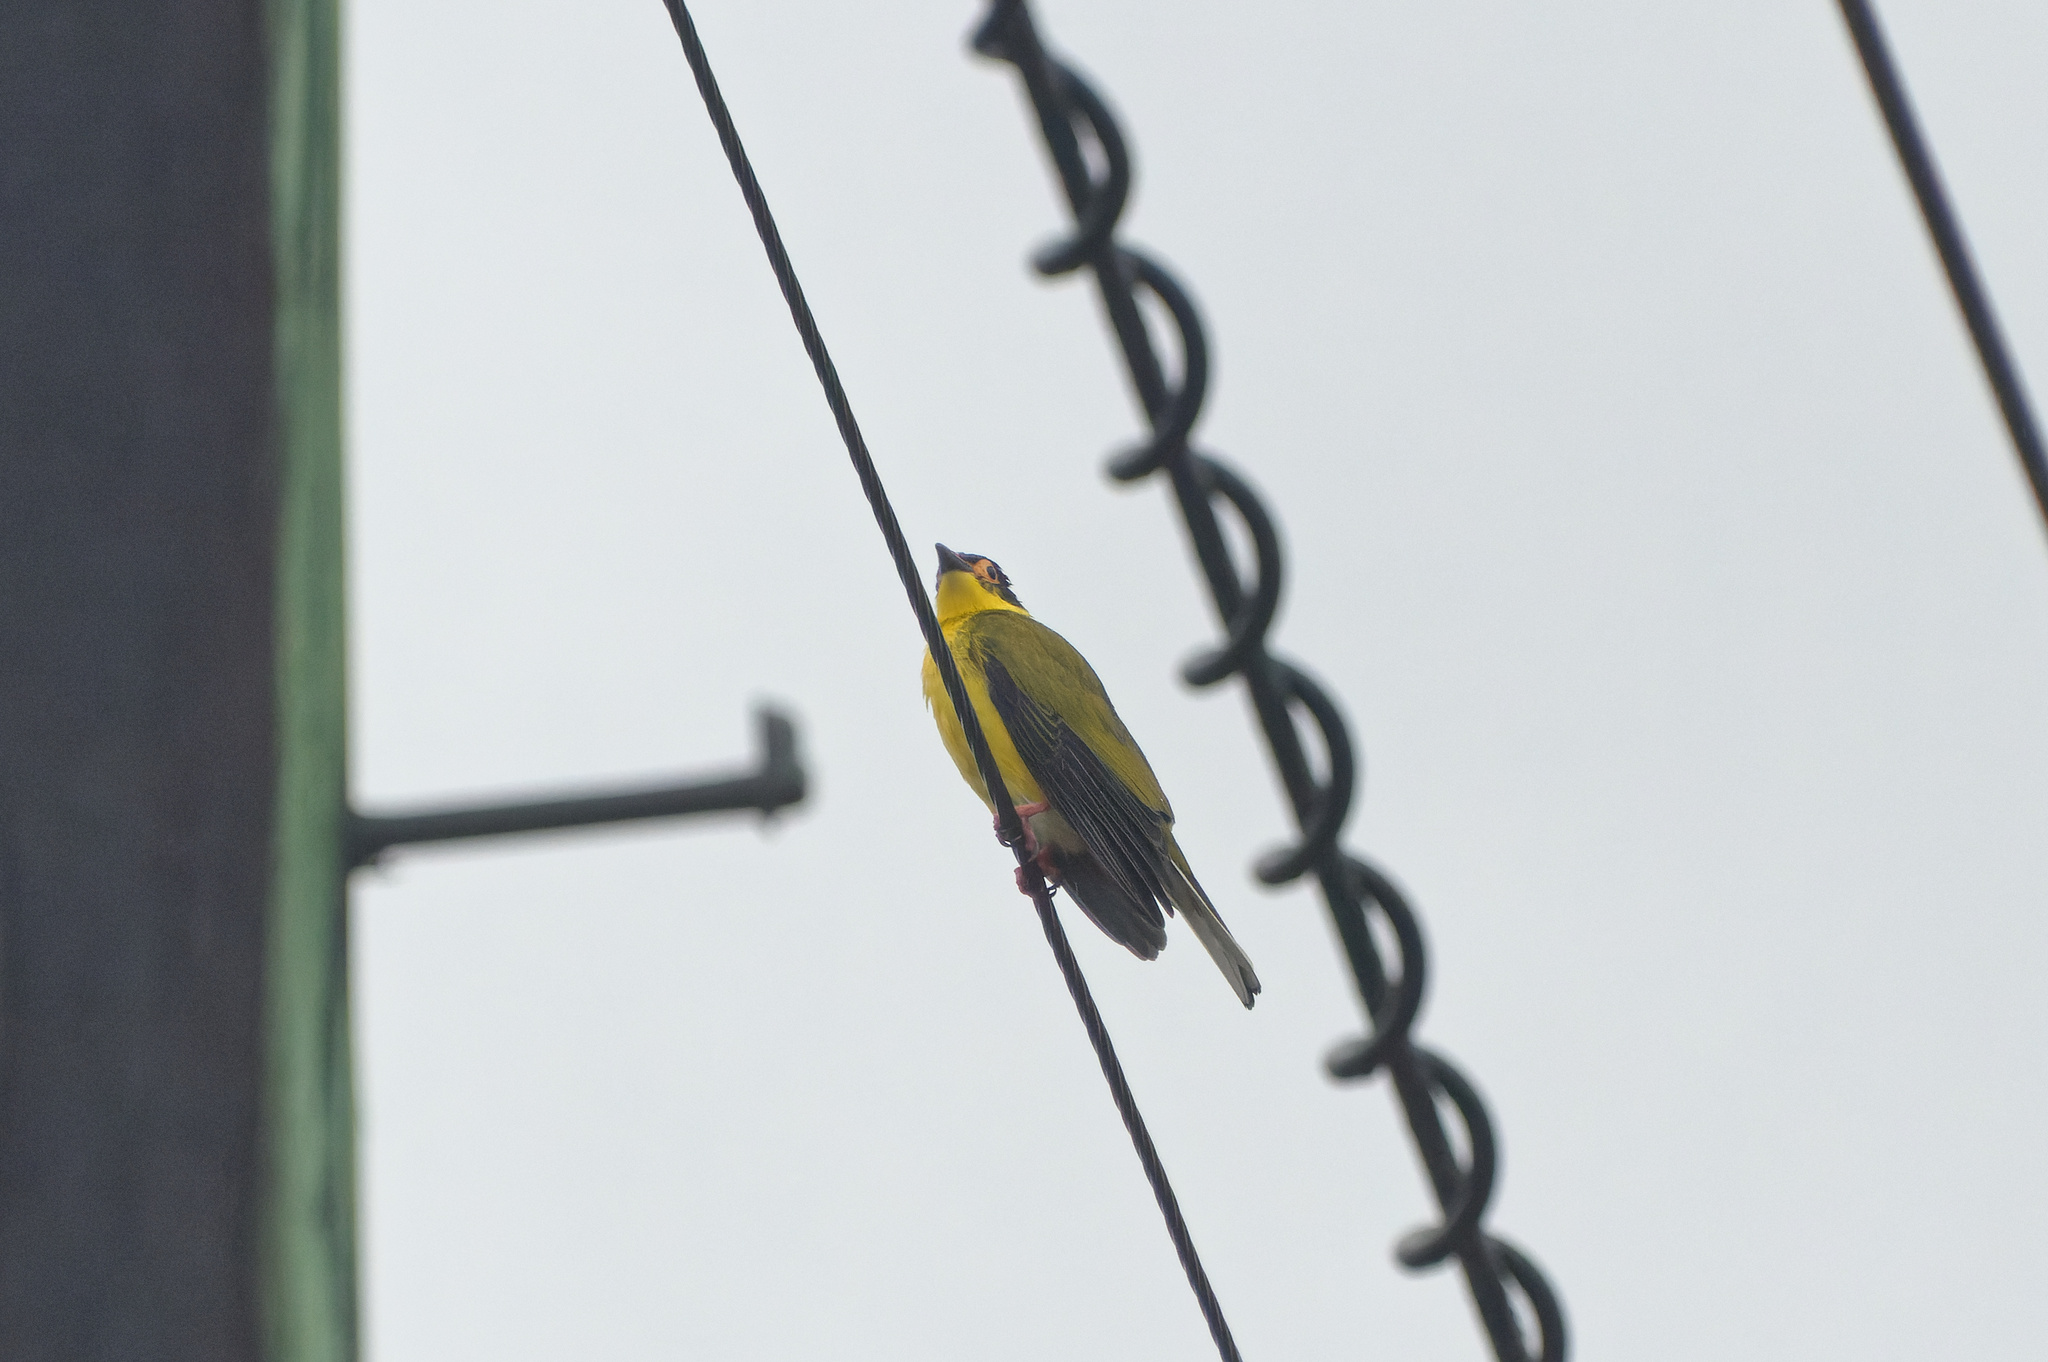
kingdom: Animalia
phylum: Chordata
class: Aves
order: Passeriformes
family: Oriolidae
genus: Sphecotheres
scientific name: Sphecotheres vieilloti
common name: Australasian figbird
